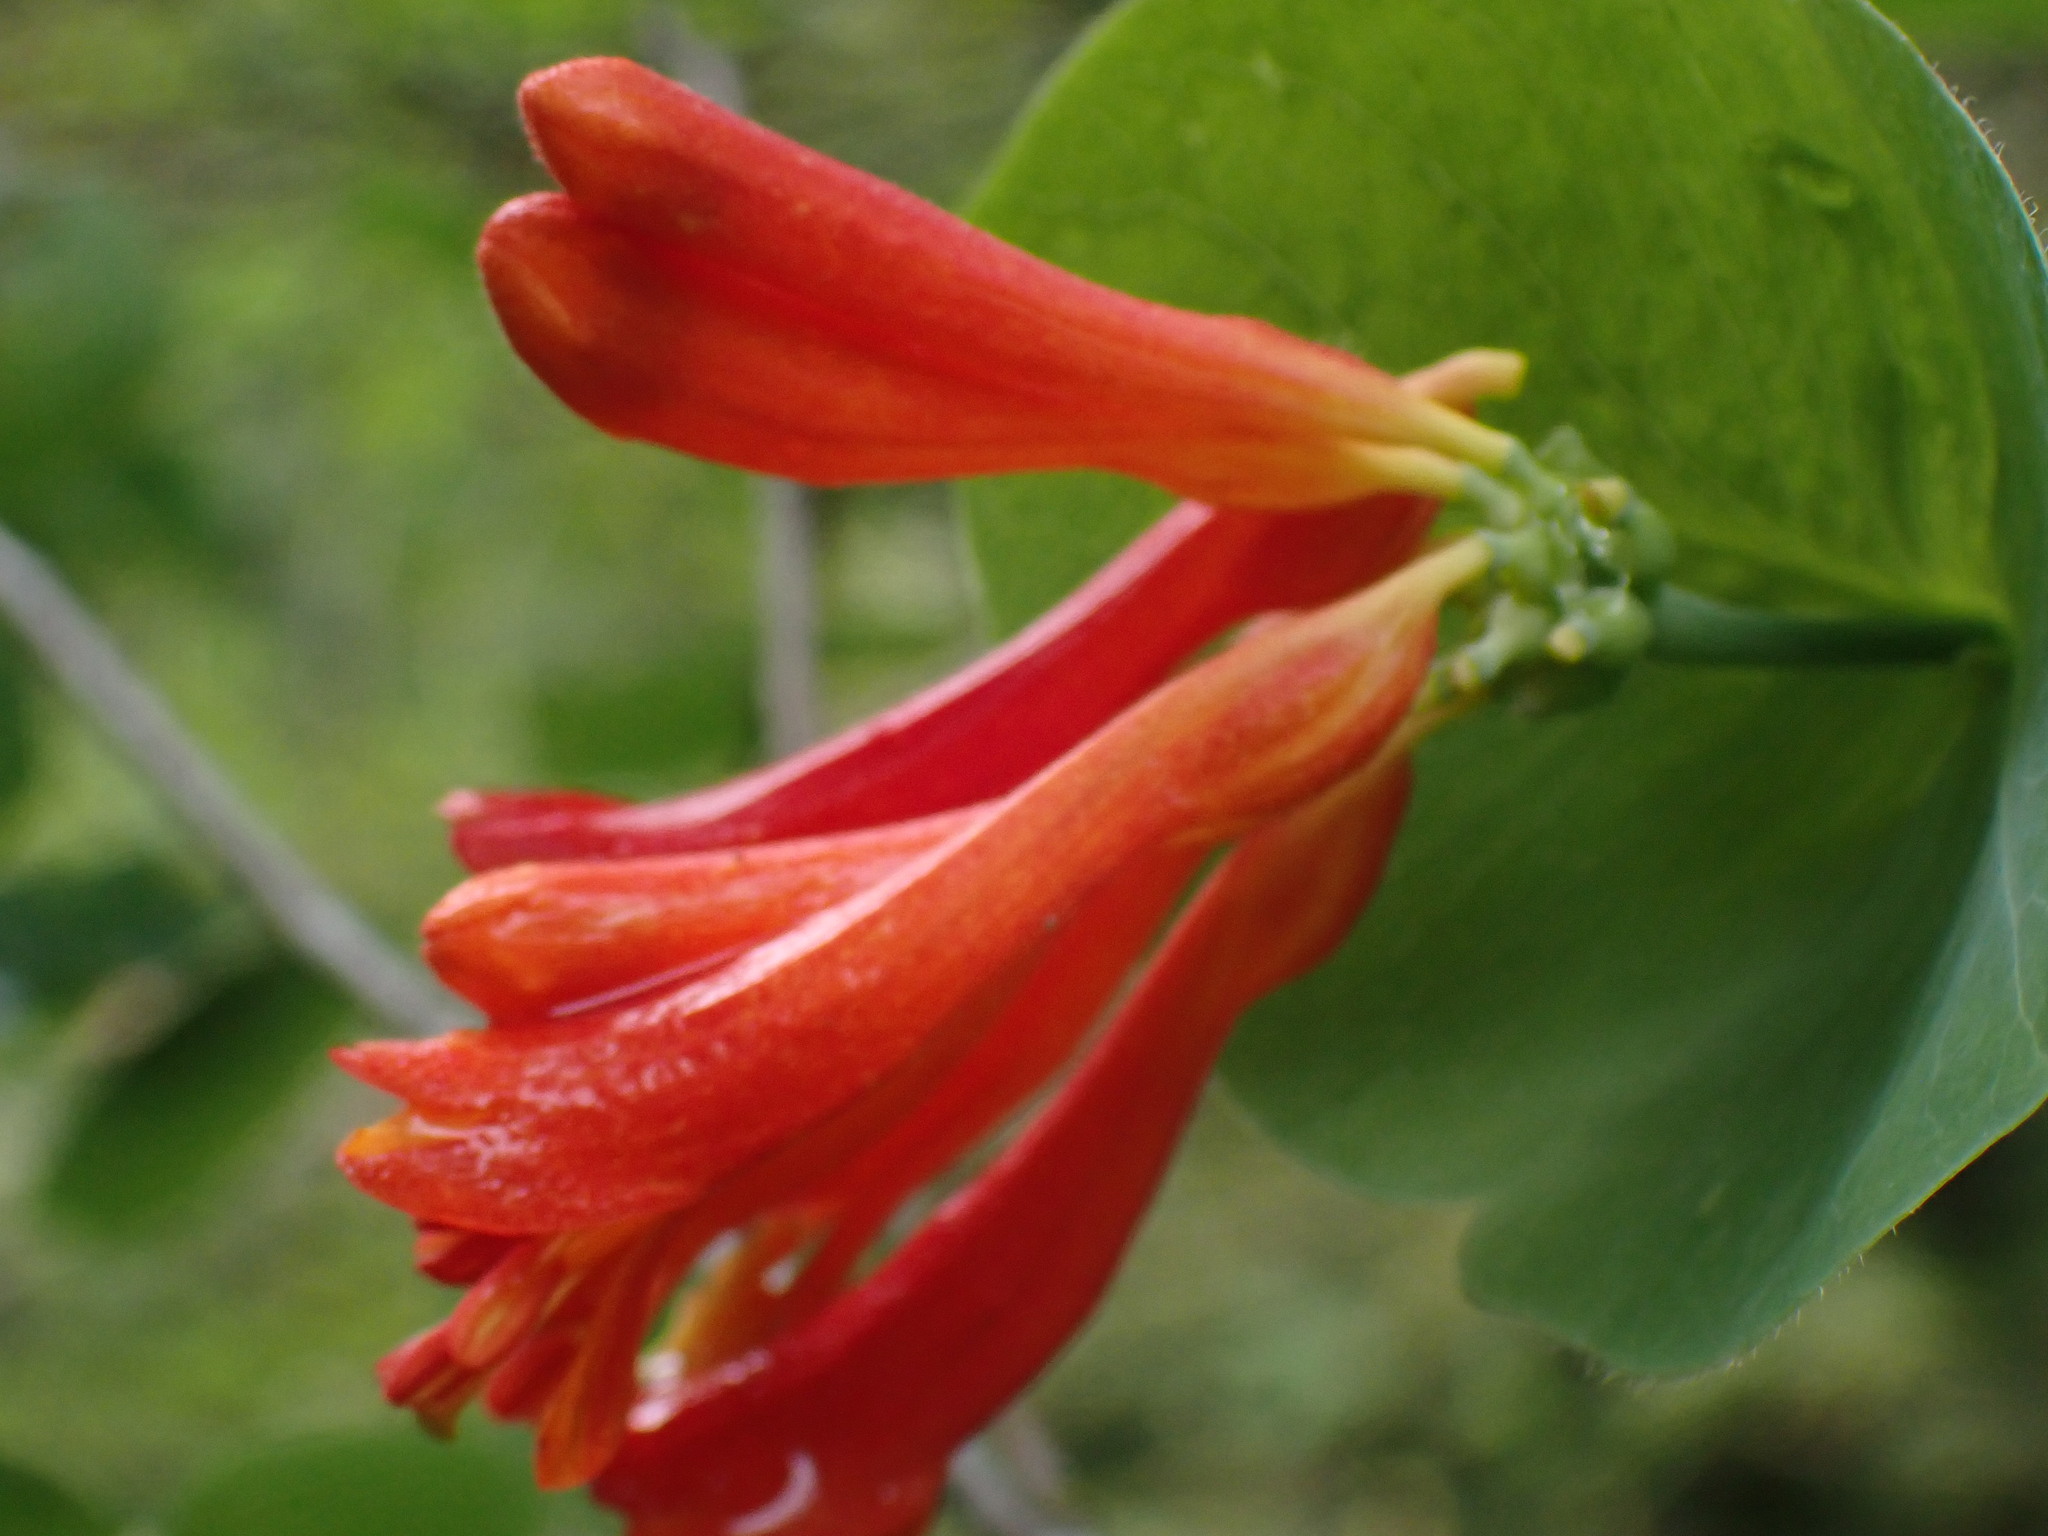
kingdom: Plantae
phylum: Tracheophyta
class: Magnoliopsida
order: Dipsacales
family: Caprifoliaceae
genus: Lonicera
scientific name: Lonicera ciliosa
